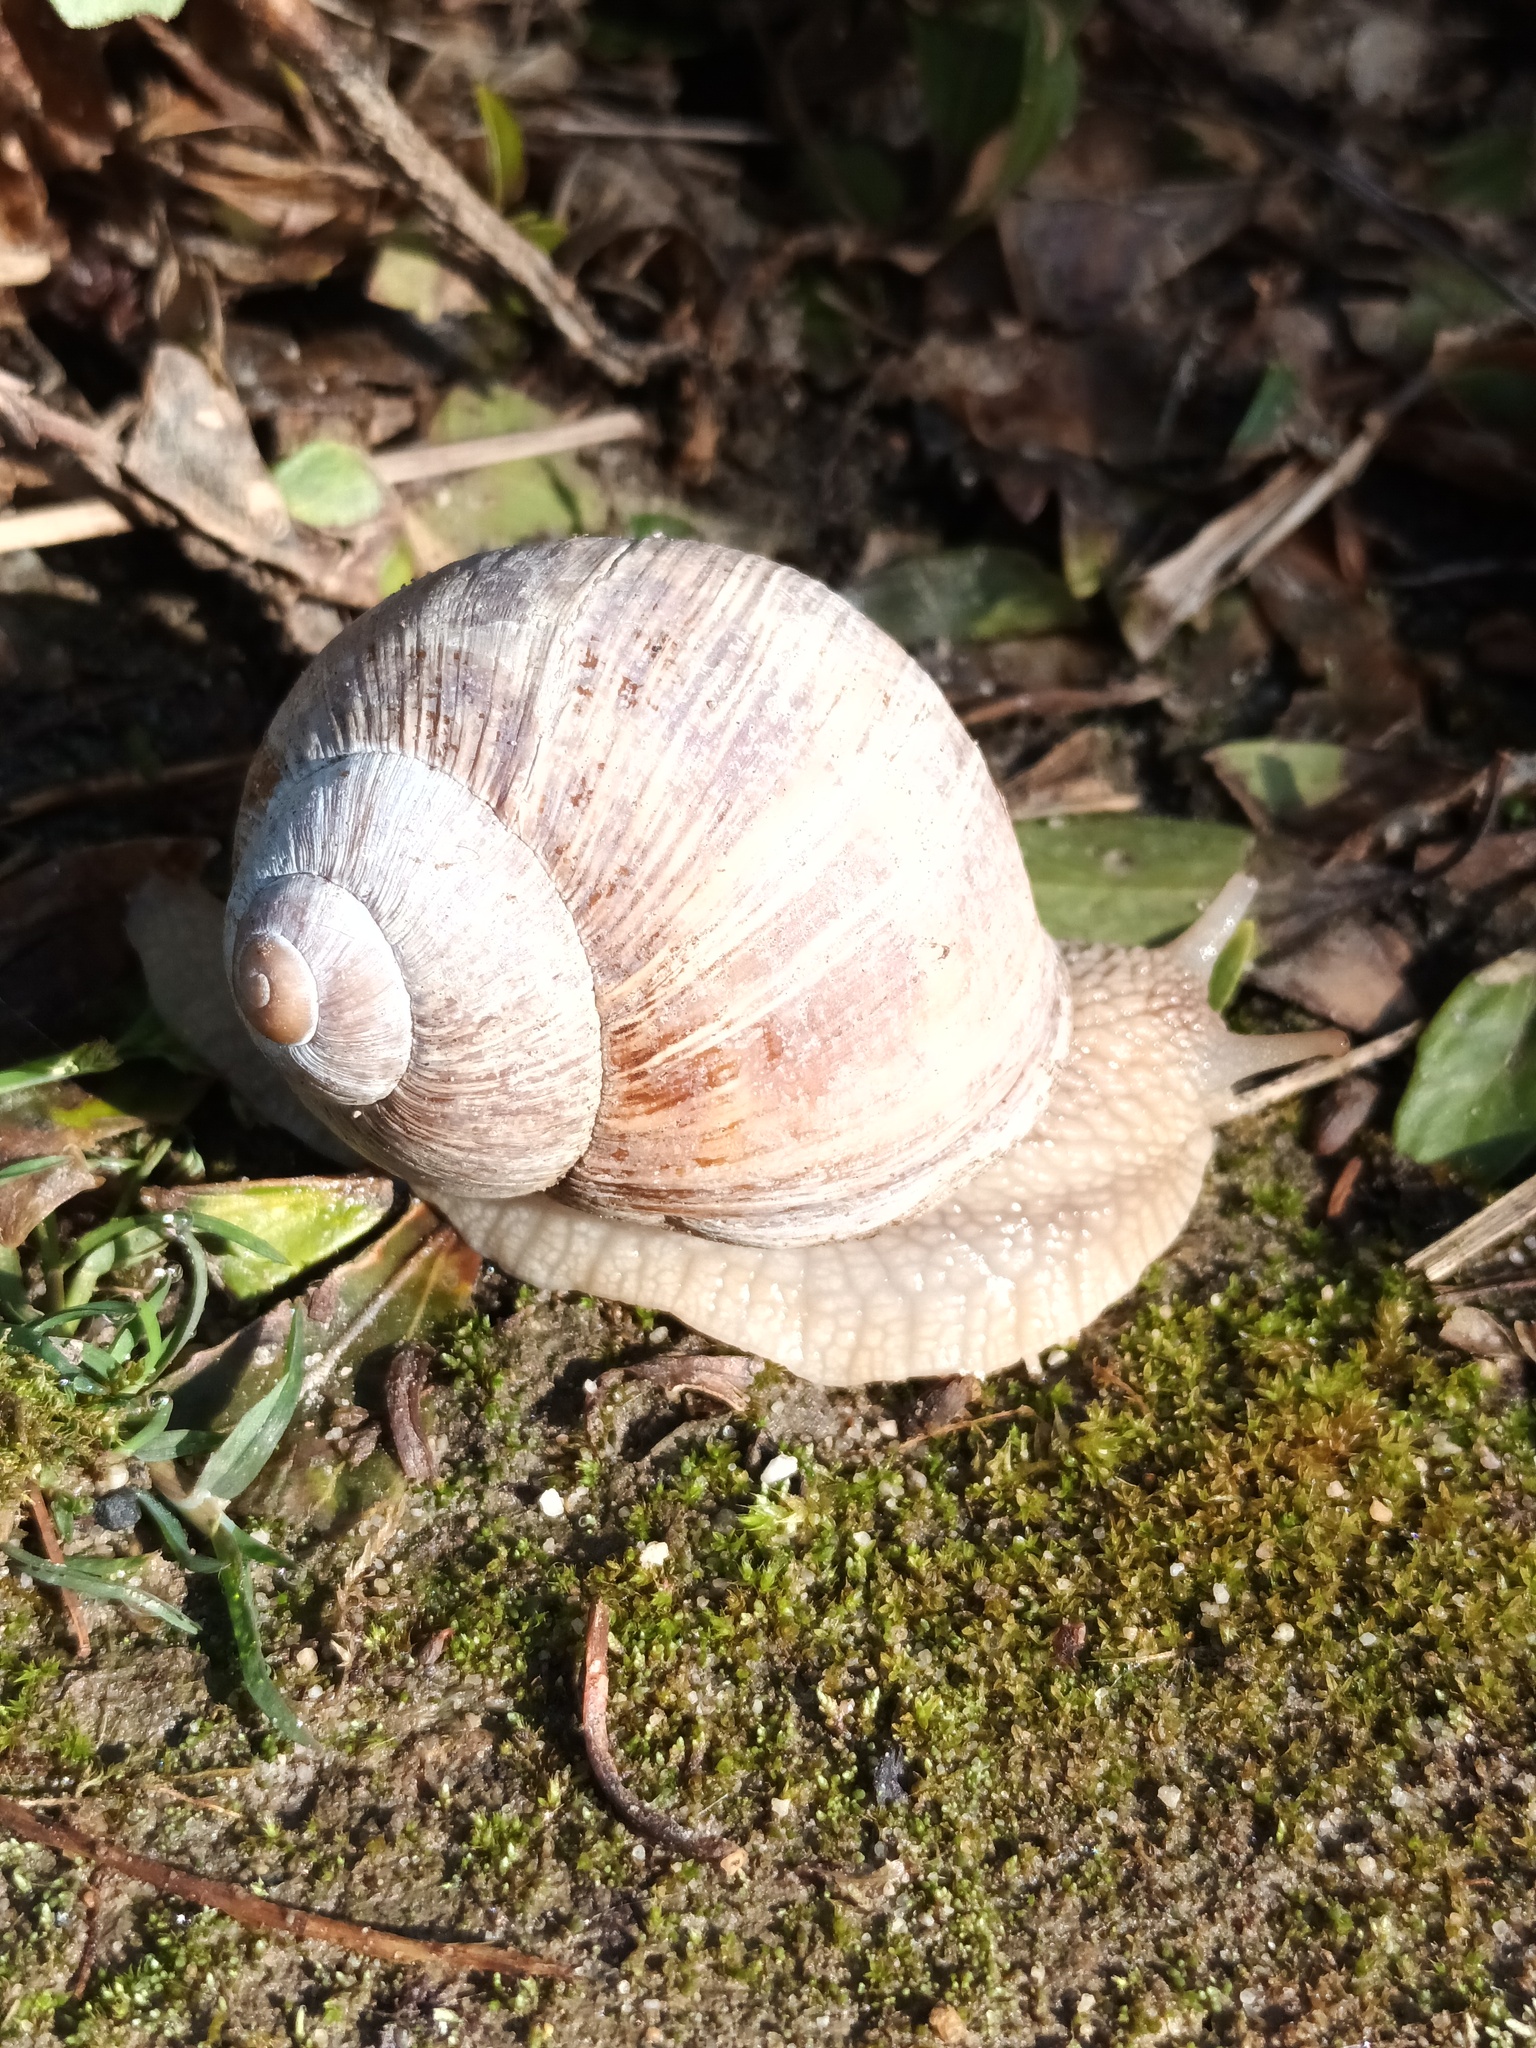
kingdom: Animalia
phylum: Mollusca
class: Gastropoda
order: Stylommatophora
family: Helicidae
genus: Helix
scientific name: Helix pomatia
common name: Roman snail
